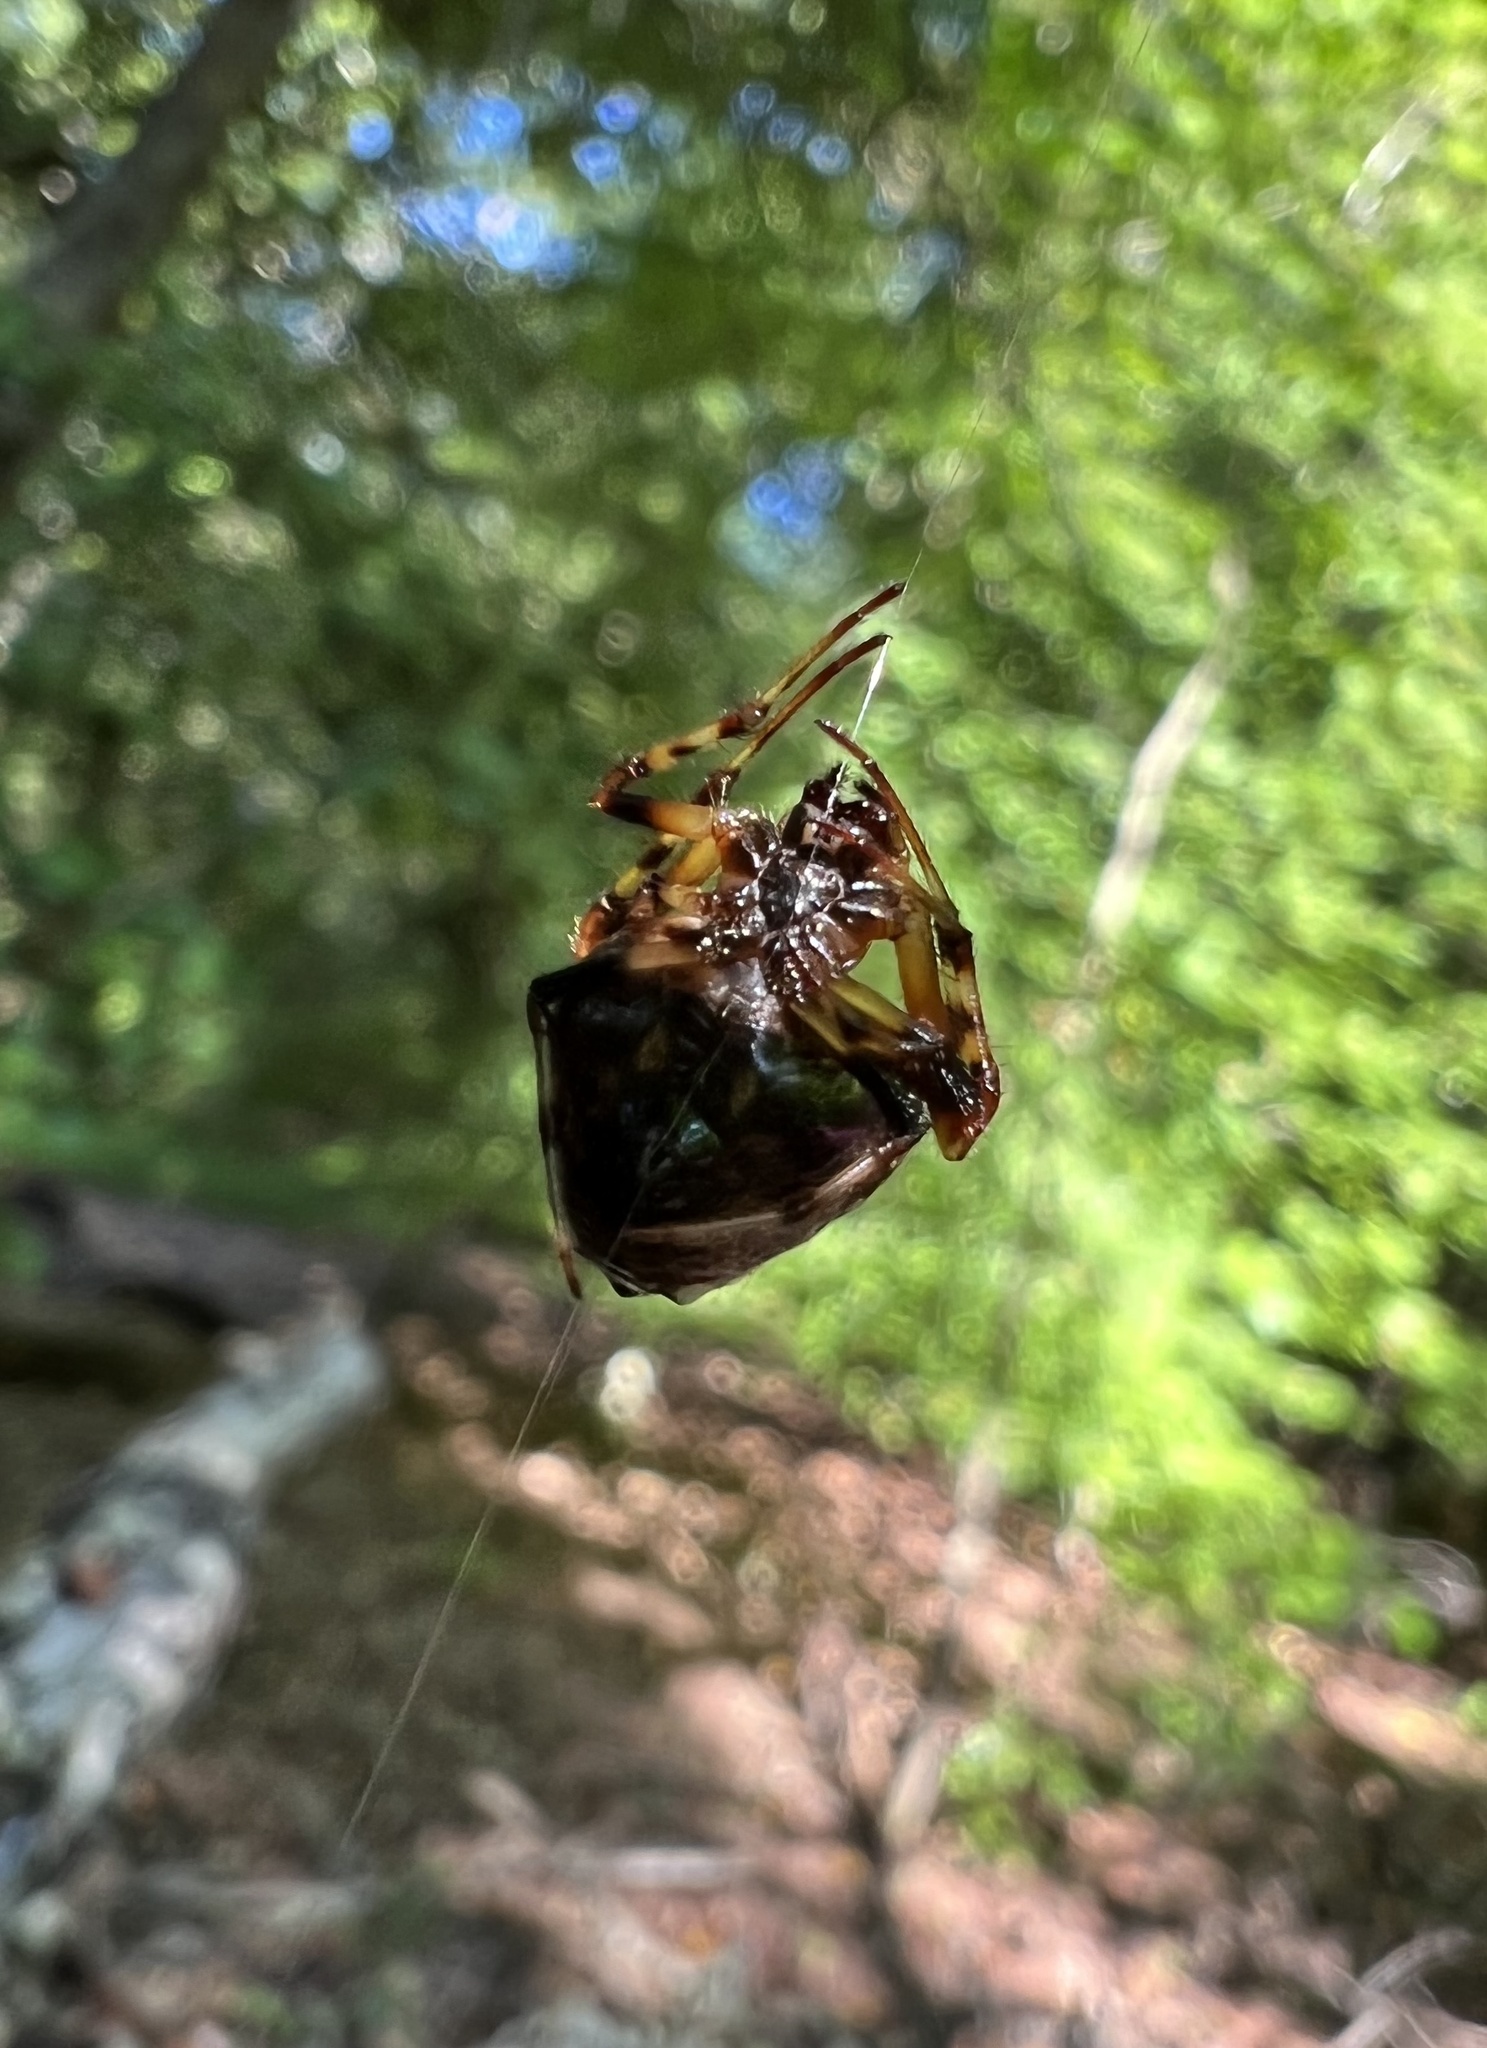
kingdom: Animalia
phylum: Arthropoda
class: Arachnida
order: Araneae
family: Araneidae
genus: Verrucosa
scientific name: Verrucosa arenata
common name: Orb weavers
